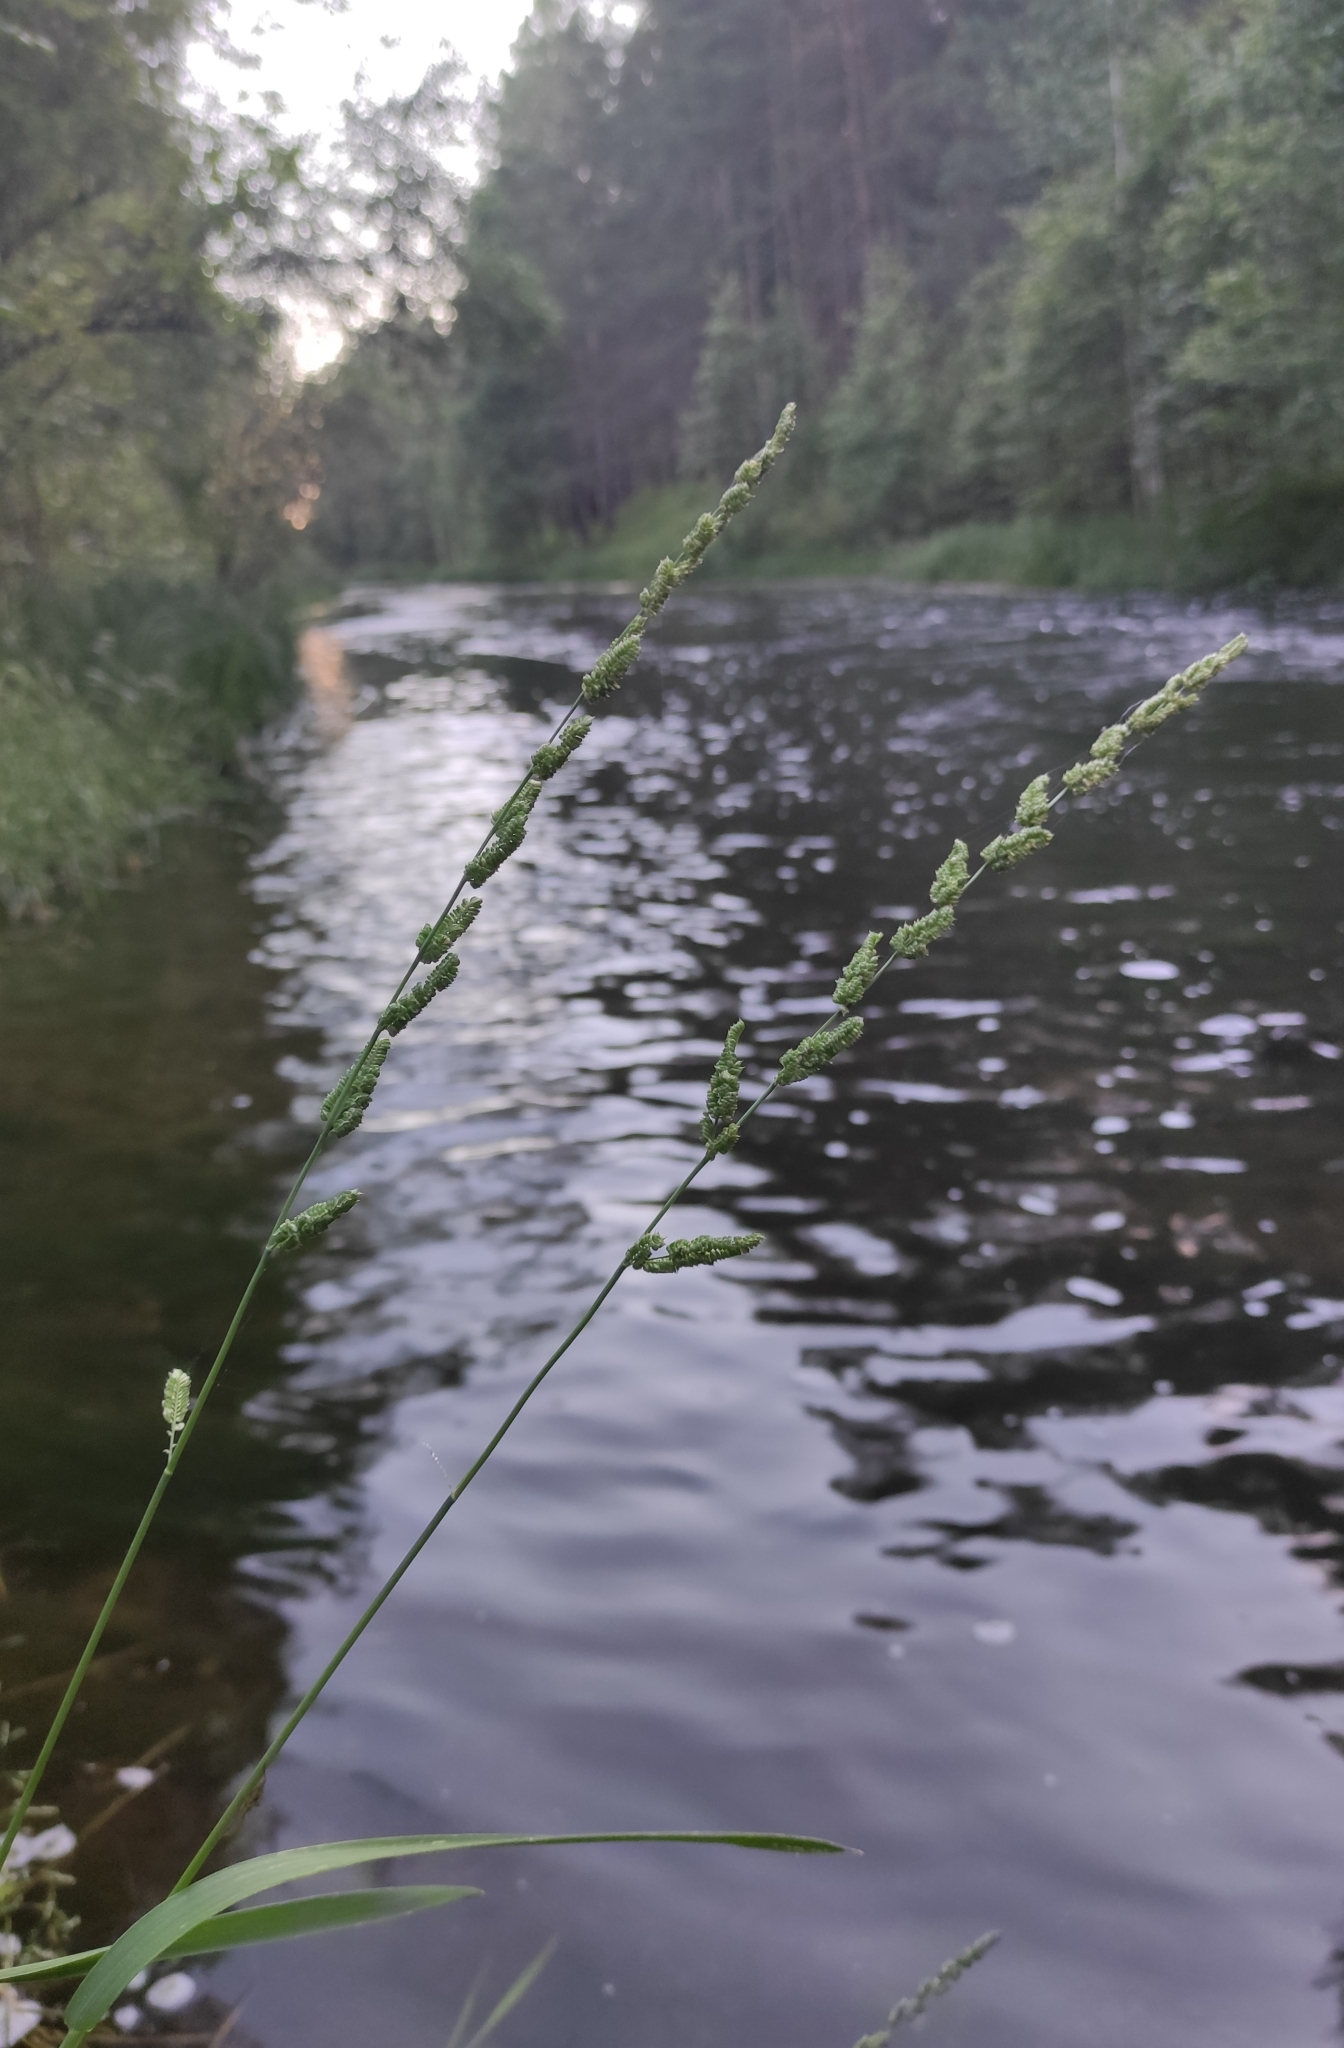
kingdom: Plantae
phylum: Tracheophyta
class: Liliopsida
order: Poales
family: Poaceae
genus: Beckmannia
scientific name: Beckmannia syzigachne
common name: American slough-grass
